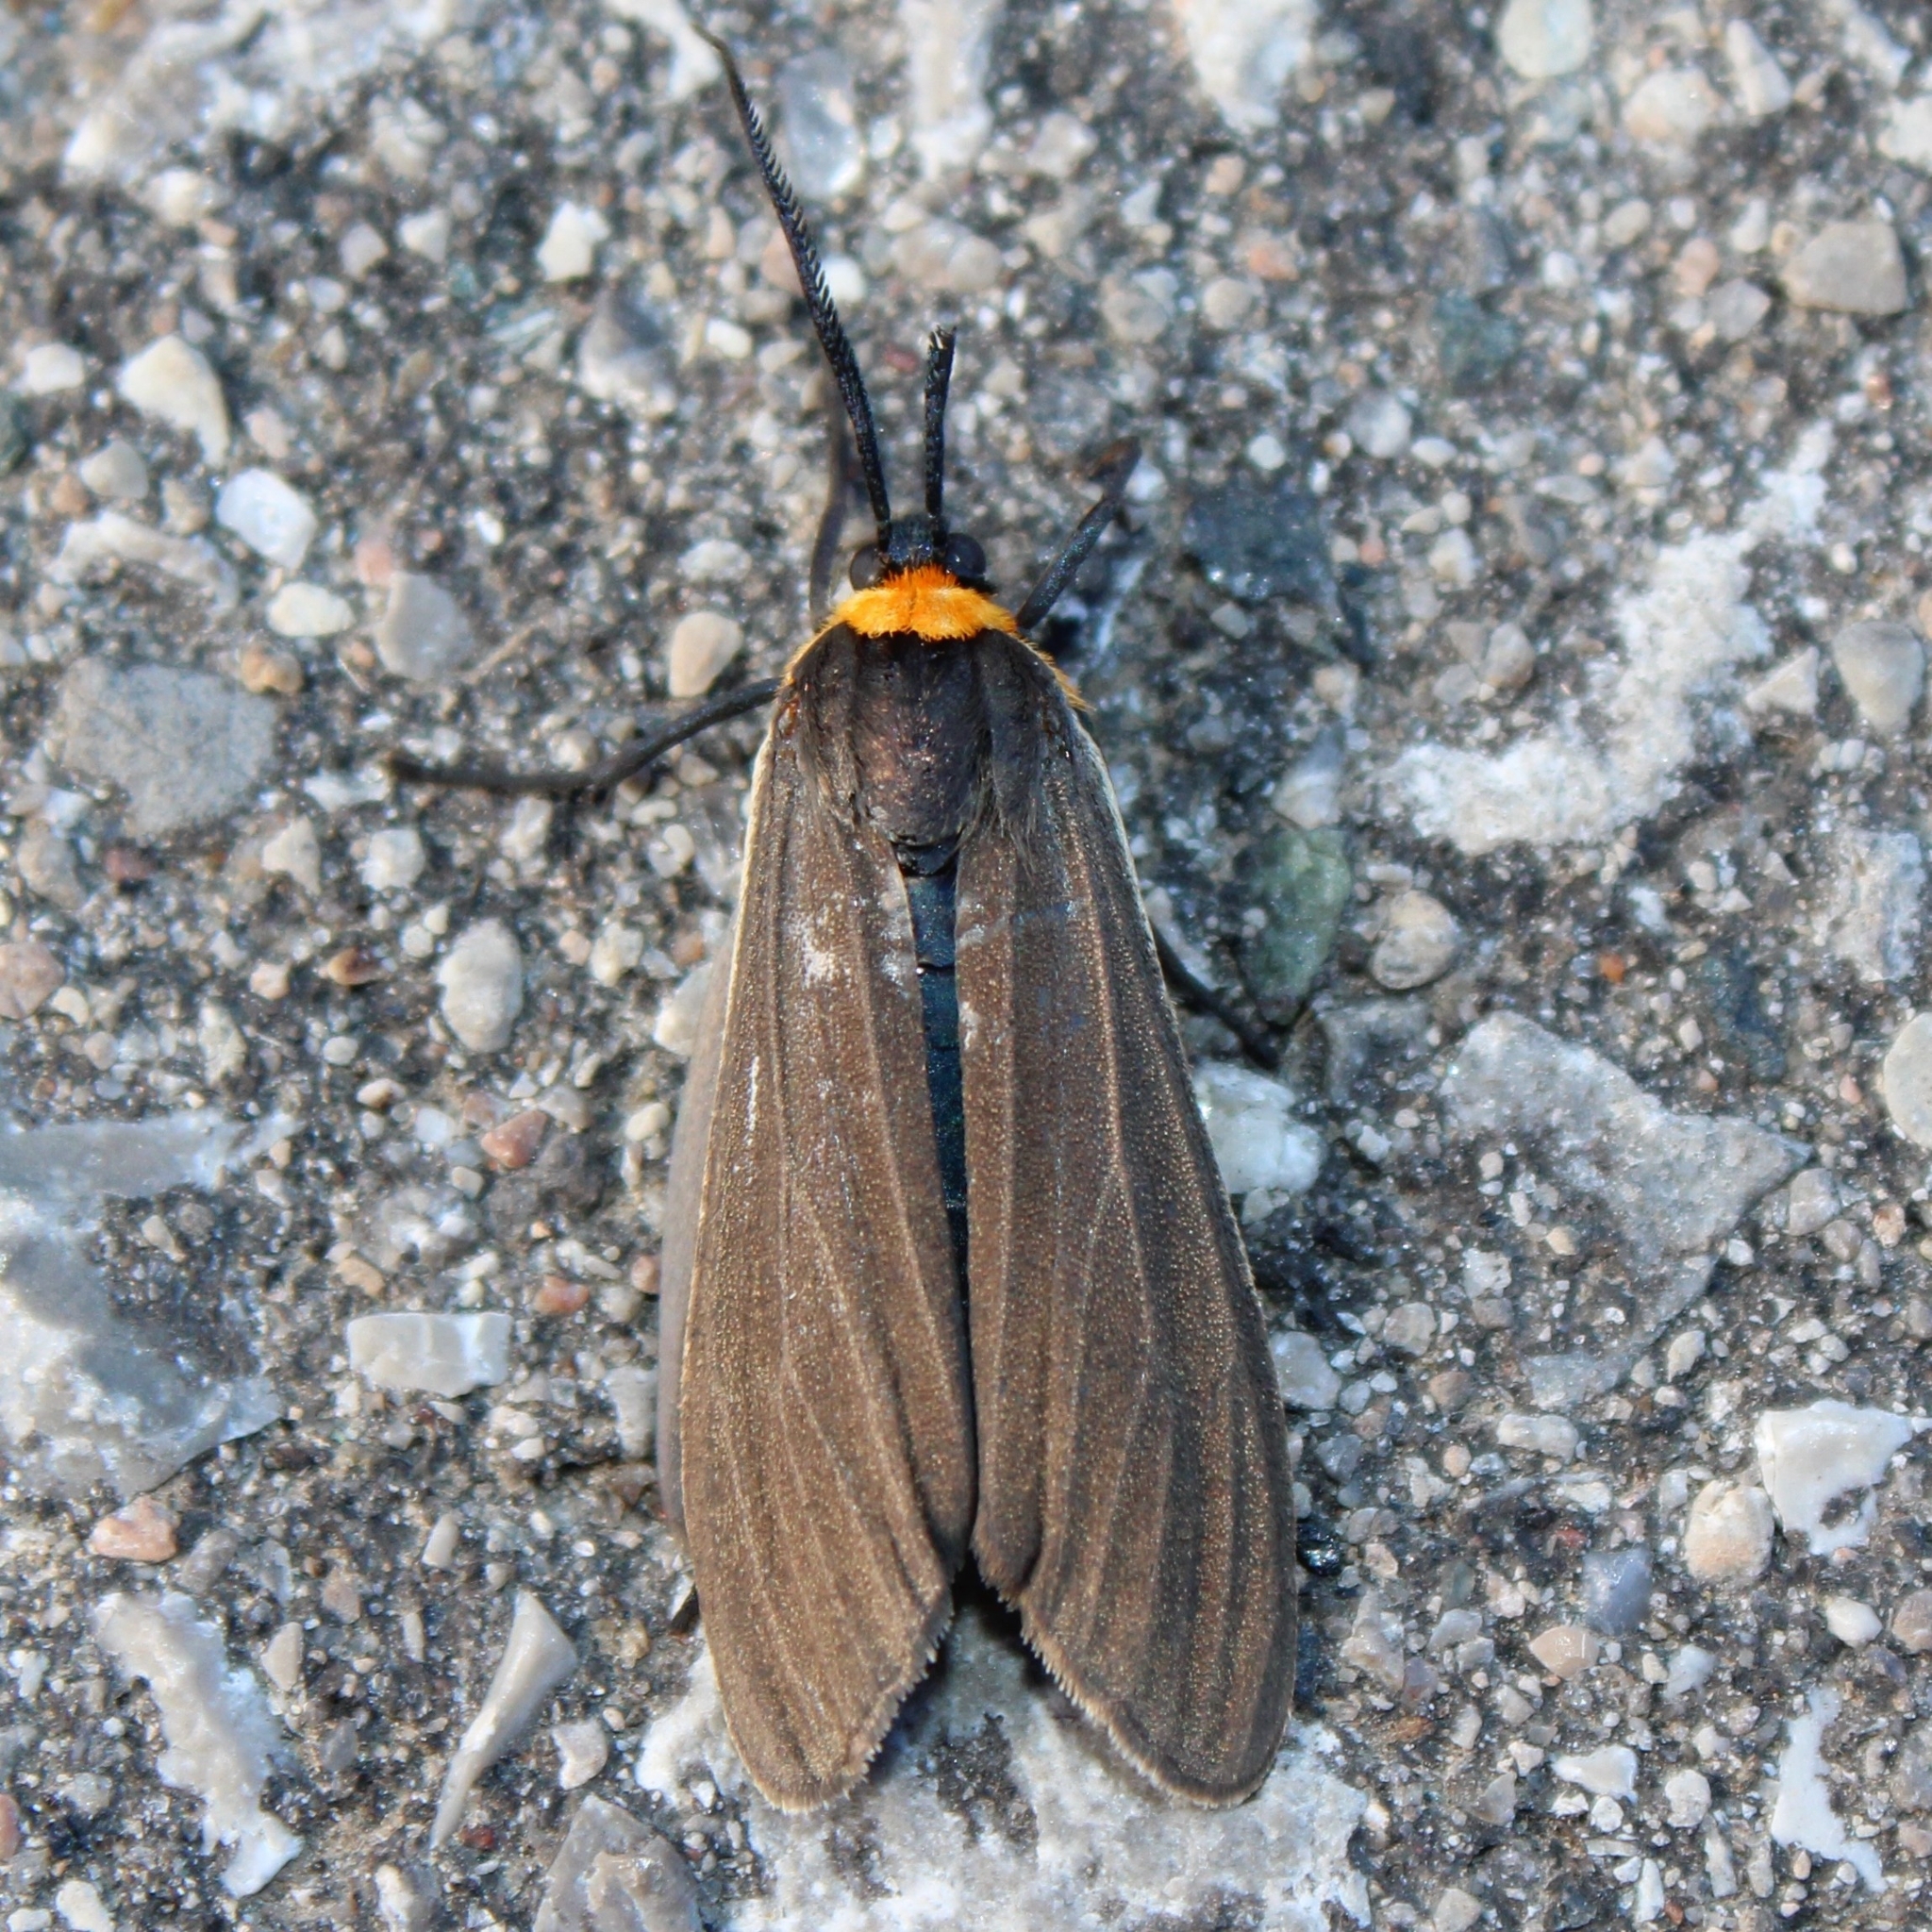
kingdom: Animalia
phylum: Arthropoda
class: Insecta
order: Lepidoptera
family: Erebidae
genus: Cisseps
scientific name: Cisseps fulvicollis
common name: Yellow-collared scape moth
